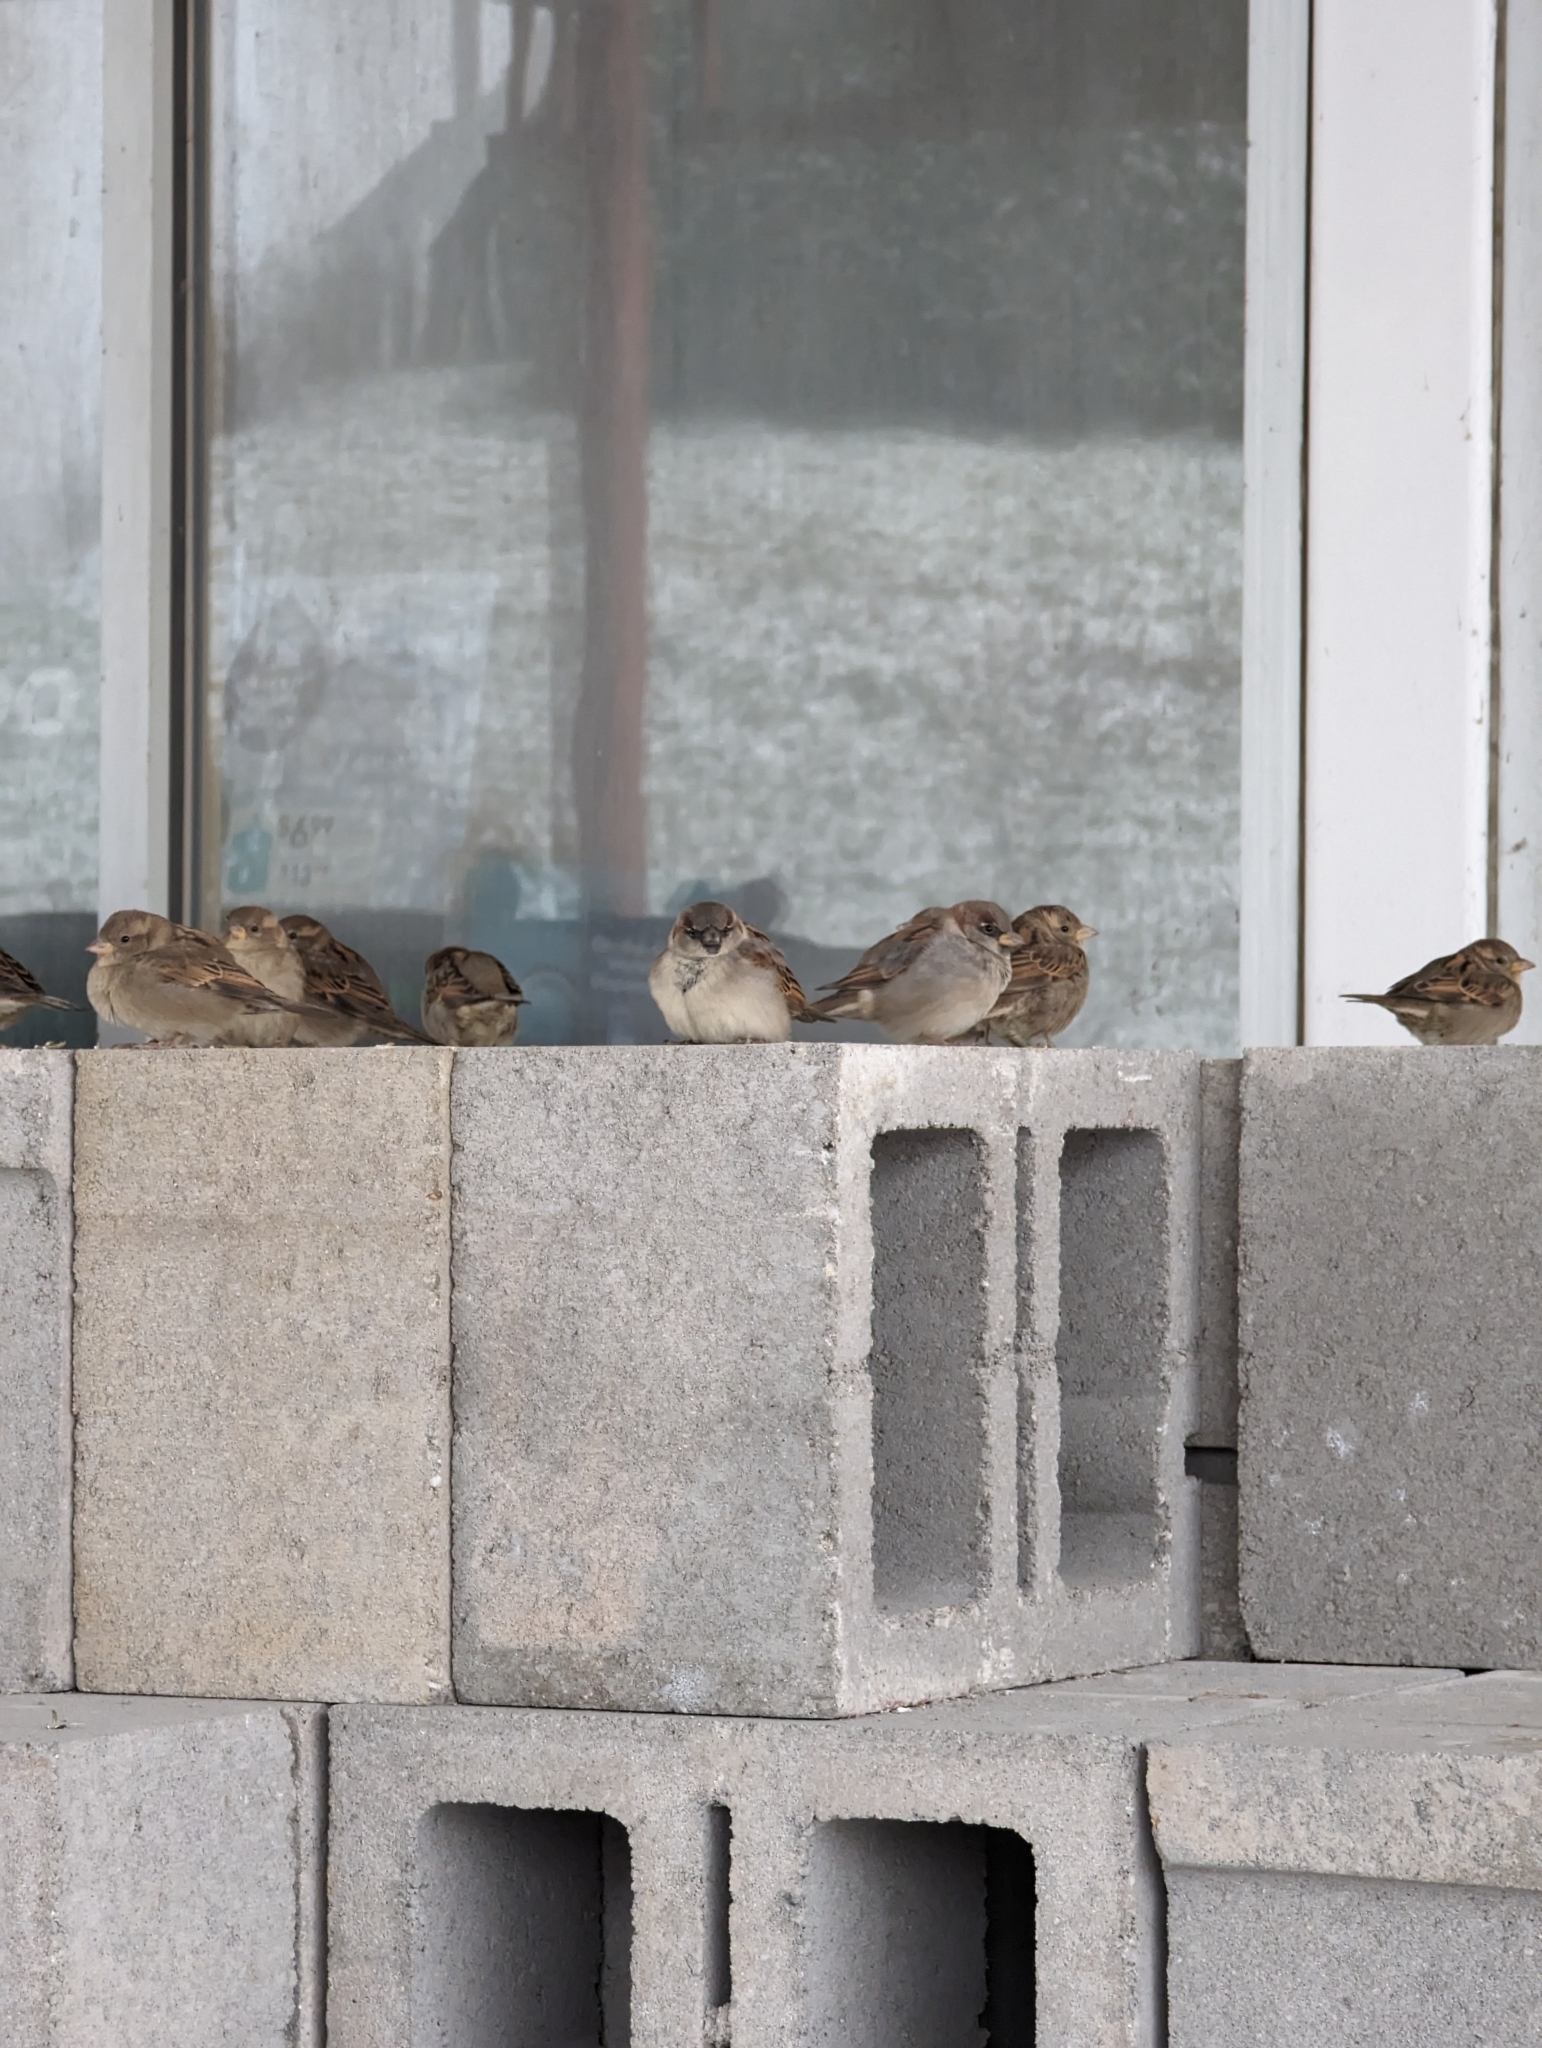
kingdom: Animalia
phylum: Chordata
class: Aves
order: Passeriformes
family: Passeridae
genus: Passer
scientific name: Passer domesticus
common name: House sparrow
